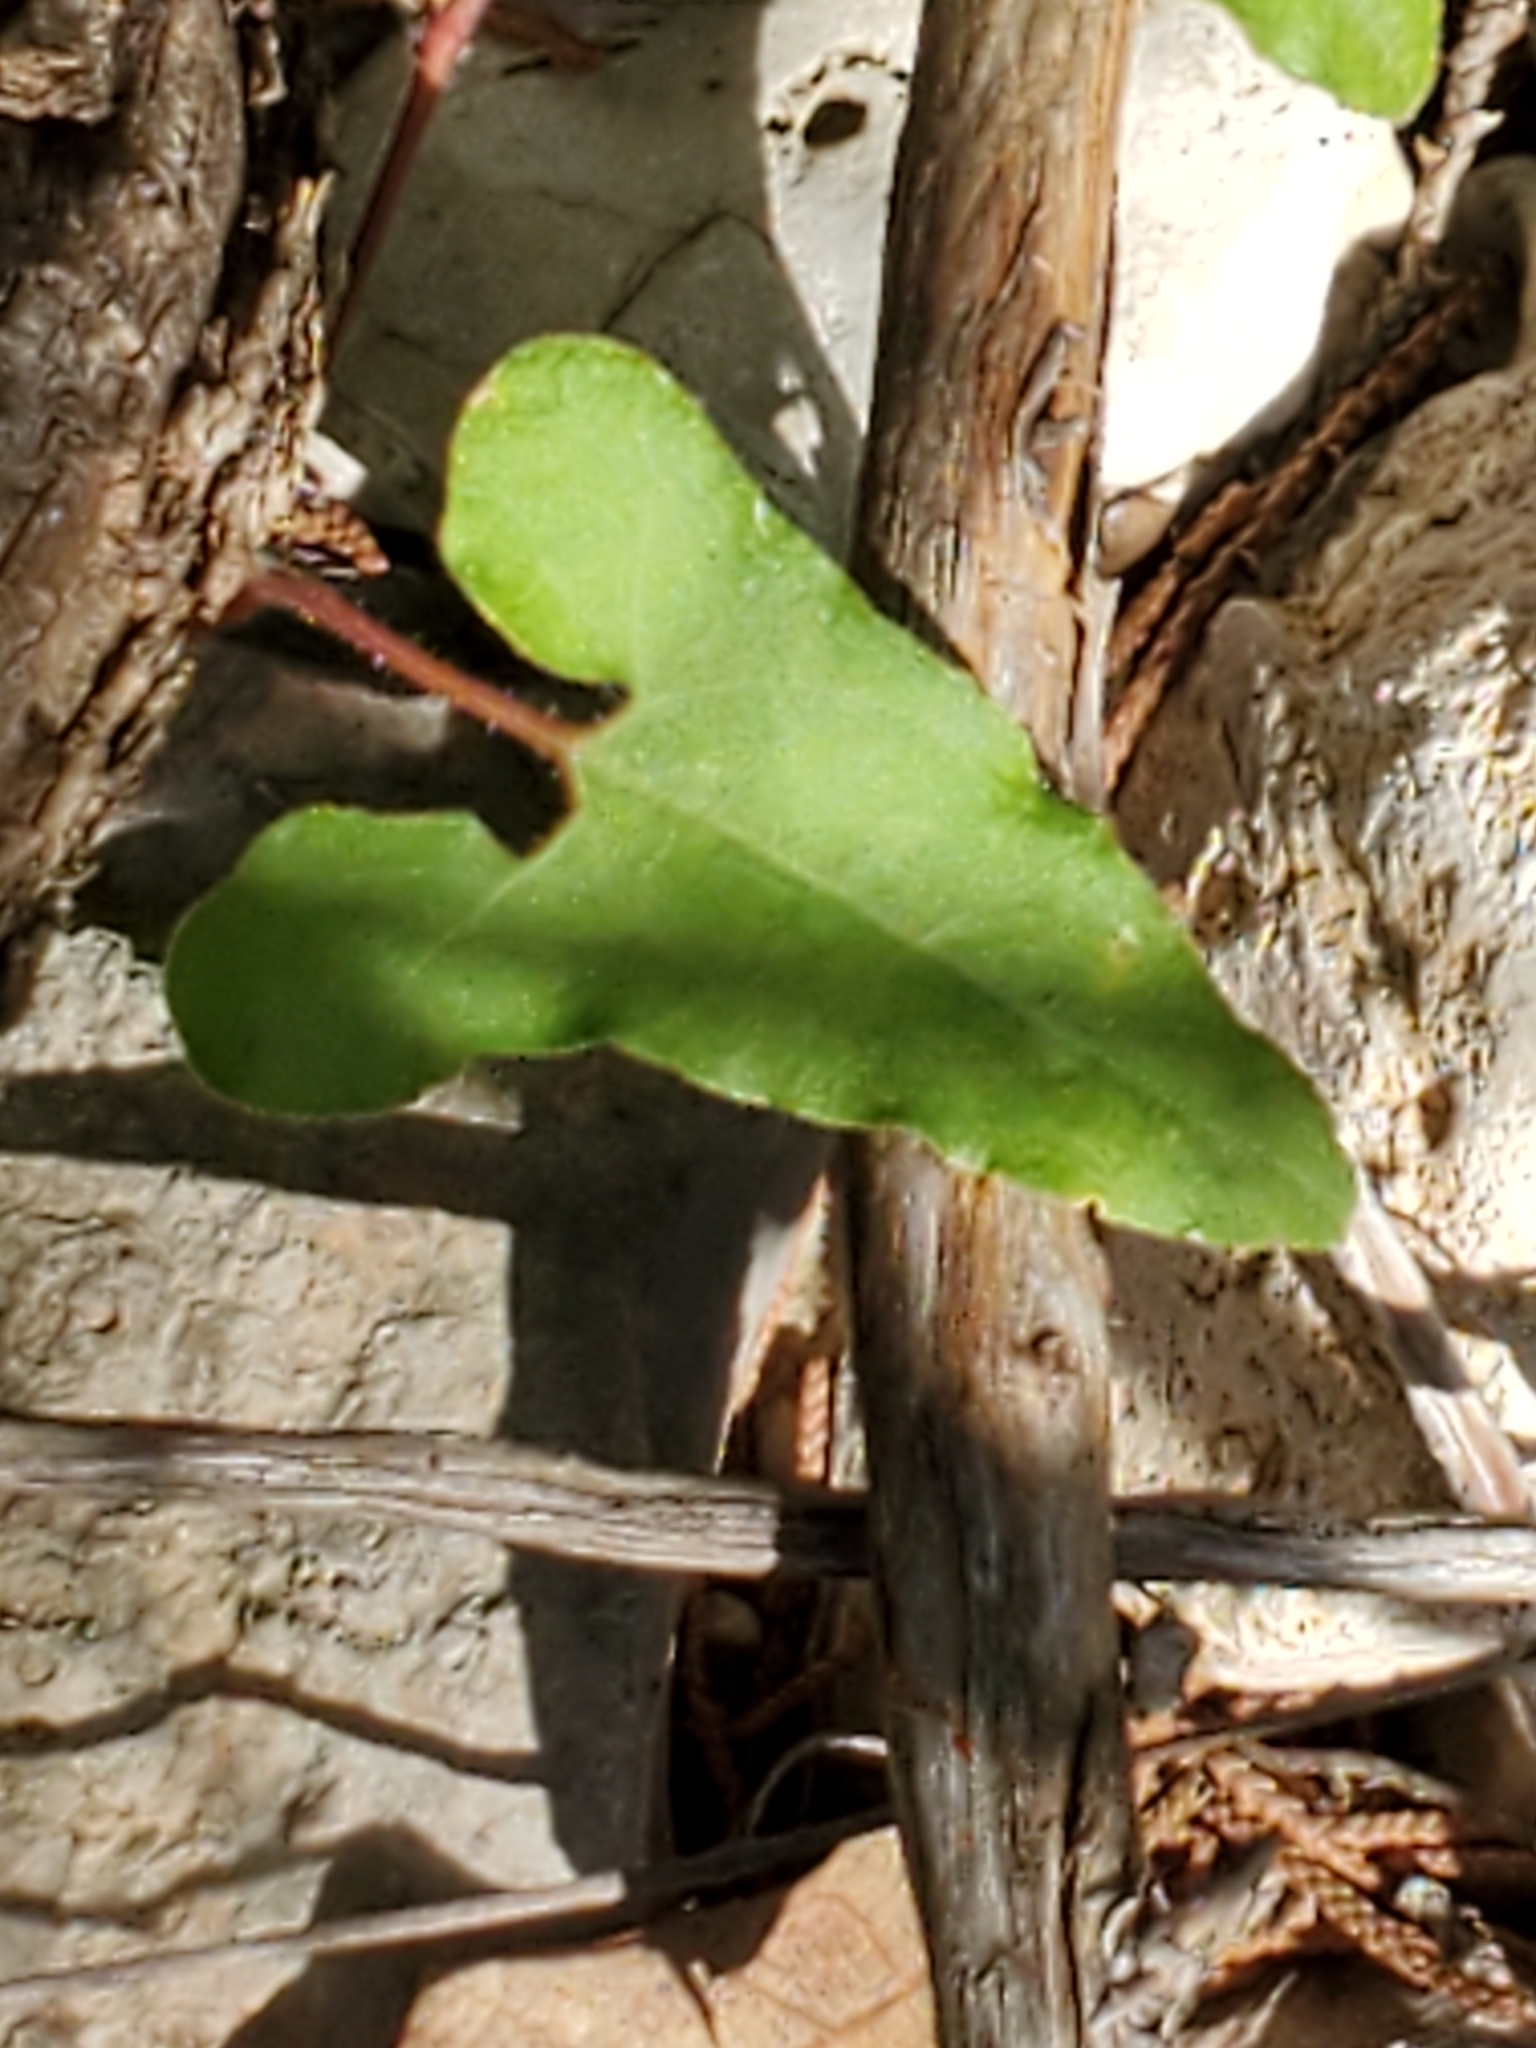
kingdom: Plantae
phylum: Tracheophyta
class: Magnoliopsida
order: Piperales
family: Aristolochiaceae
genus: Aristolochia
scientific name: Aristolochia coryi
